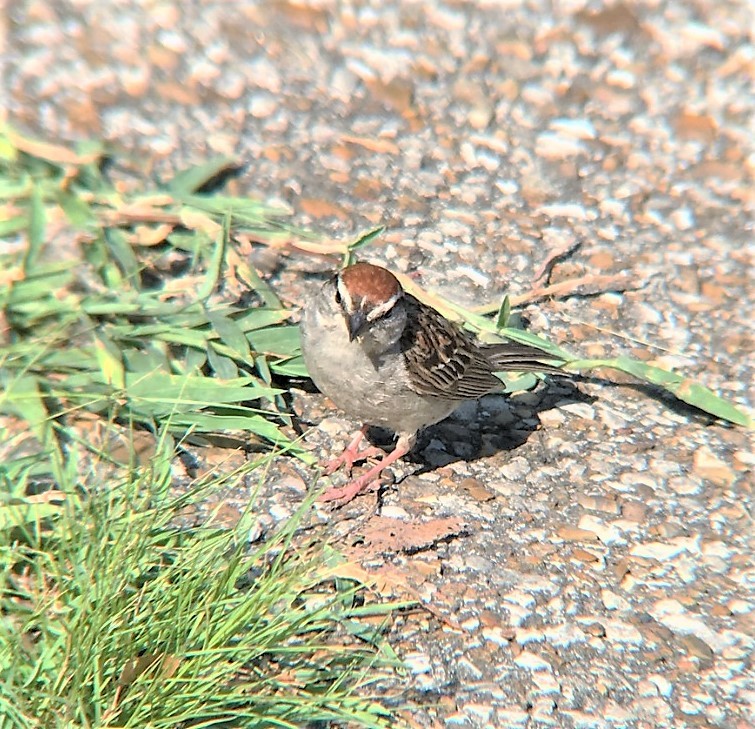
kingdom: Animalia
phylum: Chordata
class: Aves
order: Passeriformes
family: Passerellidae
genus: Spizella
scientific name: Spizella passerina
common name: Chipping sparrow
